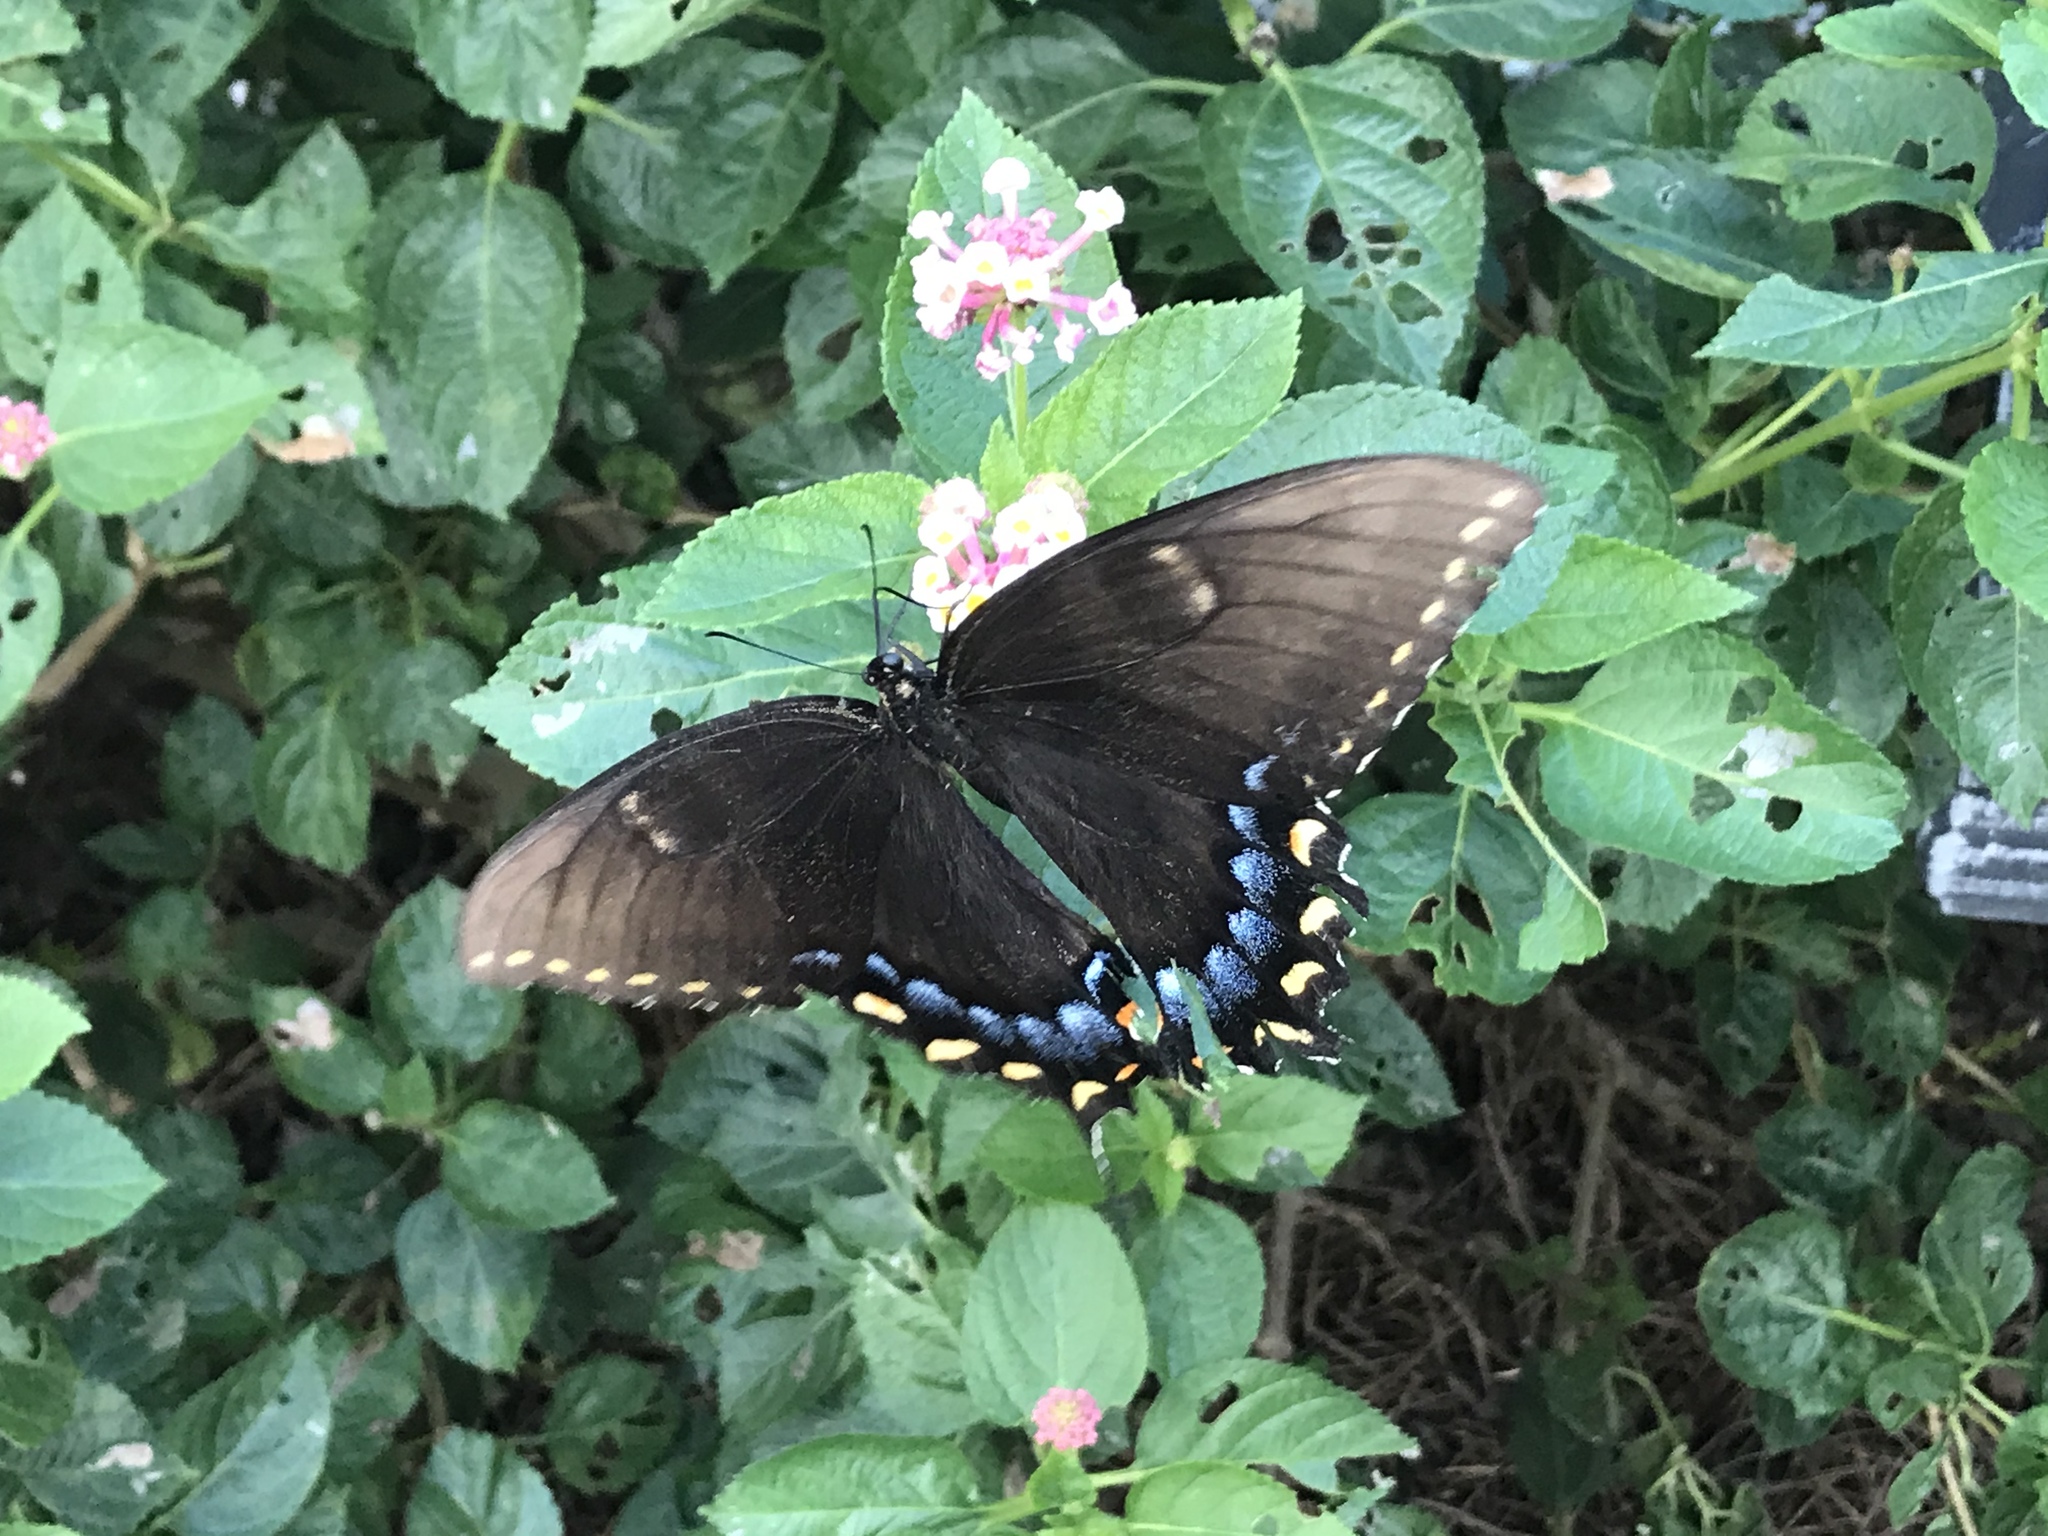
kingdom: Animalia
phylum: Arthropoda
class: Insecta
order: Lepidoptera
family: Papilionidae
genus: Papilio
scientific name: Papilio glaucus
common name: Tiger swallowtail
